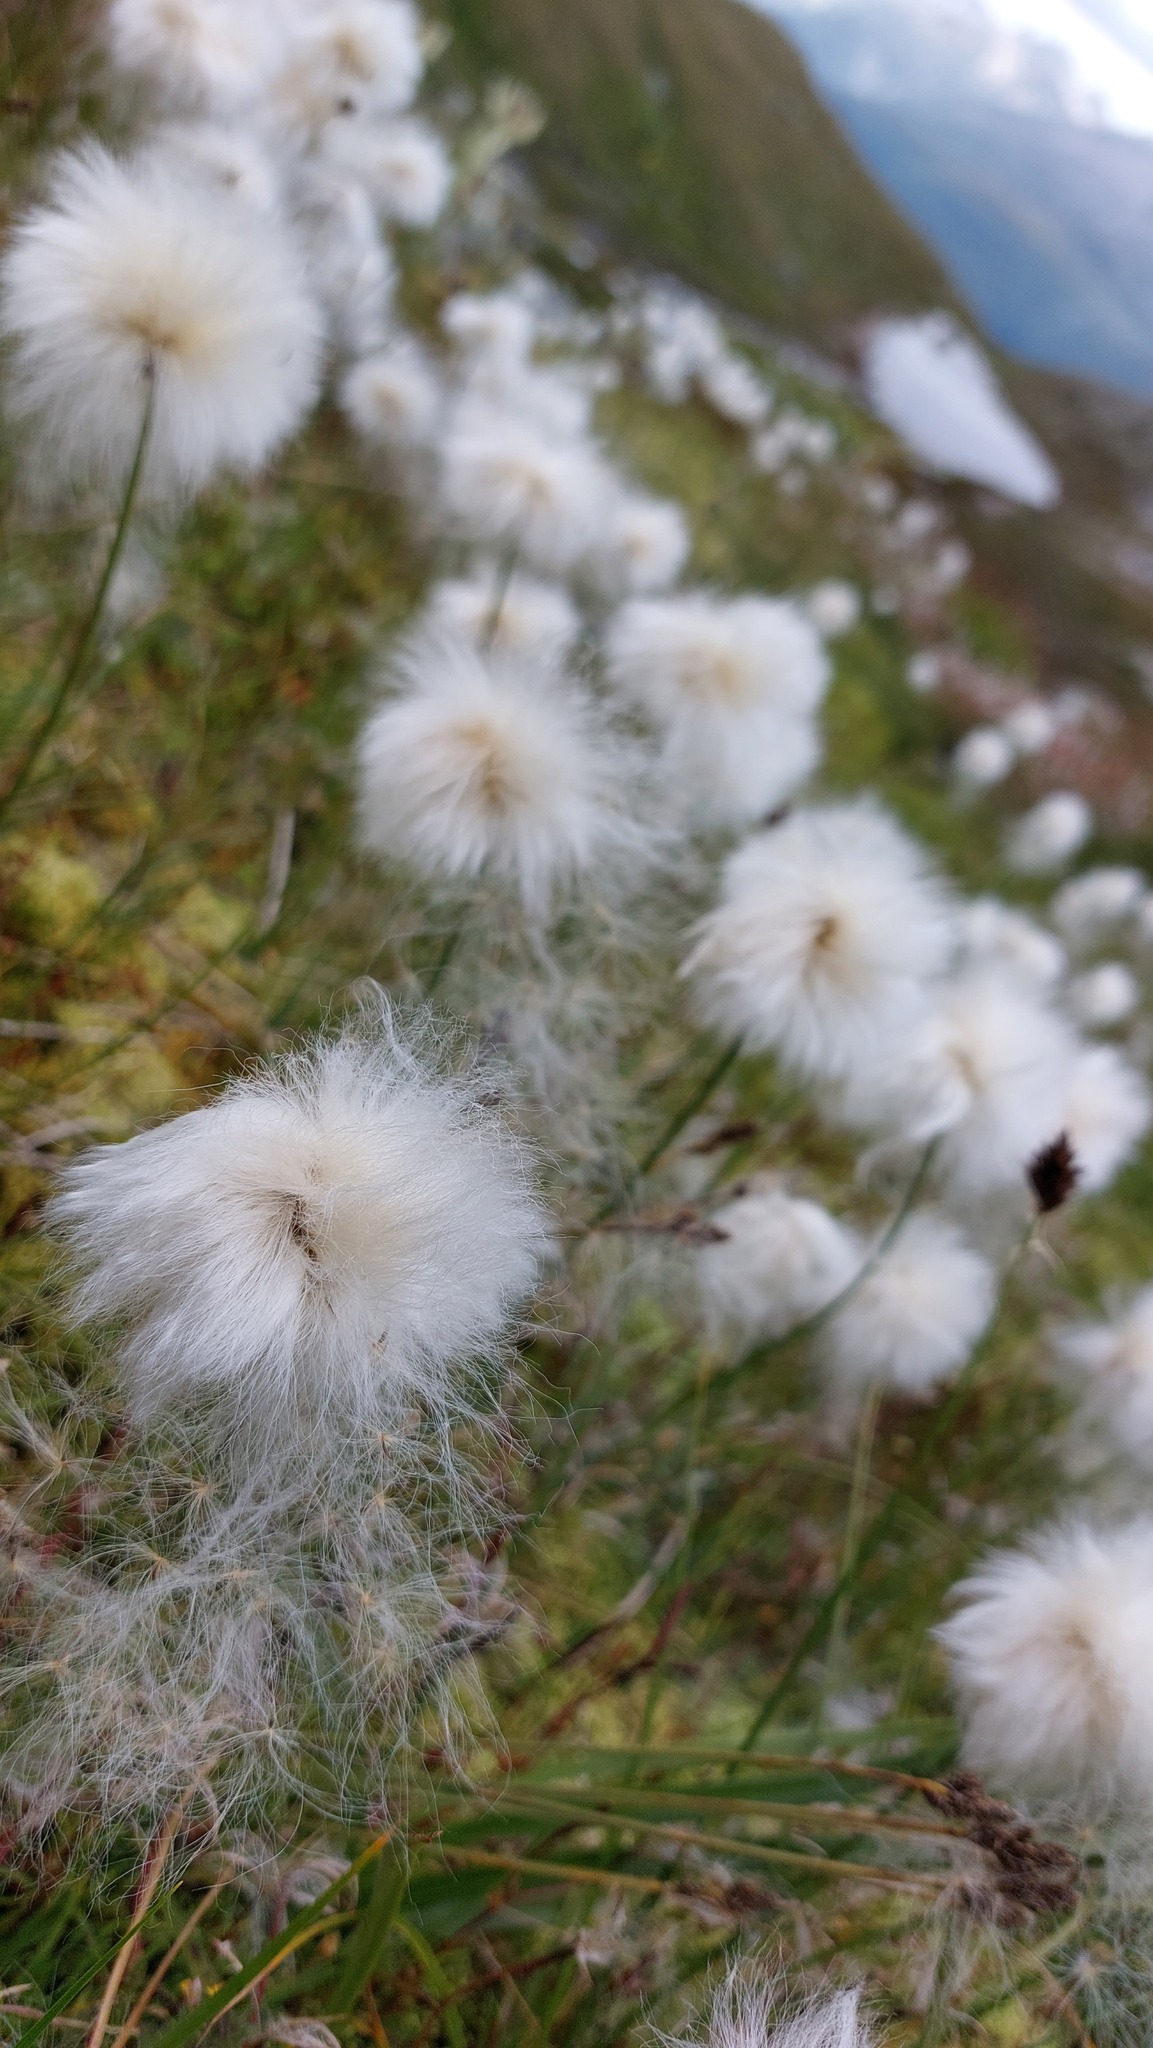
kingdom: Plantae
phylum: Tracheophyta
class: Liliopsida
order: Poales
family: Cyperaceae
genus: Eriophorum
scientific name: Eriophorum scheuchzeri
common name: Scheuchzer's cottongrass
